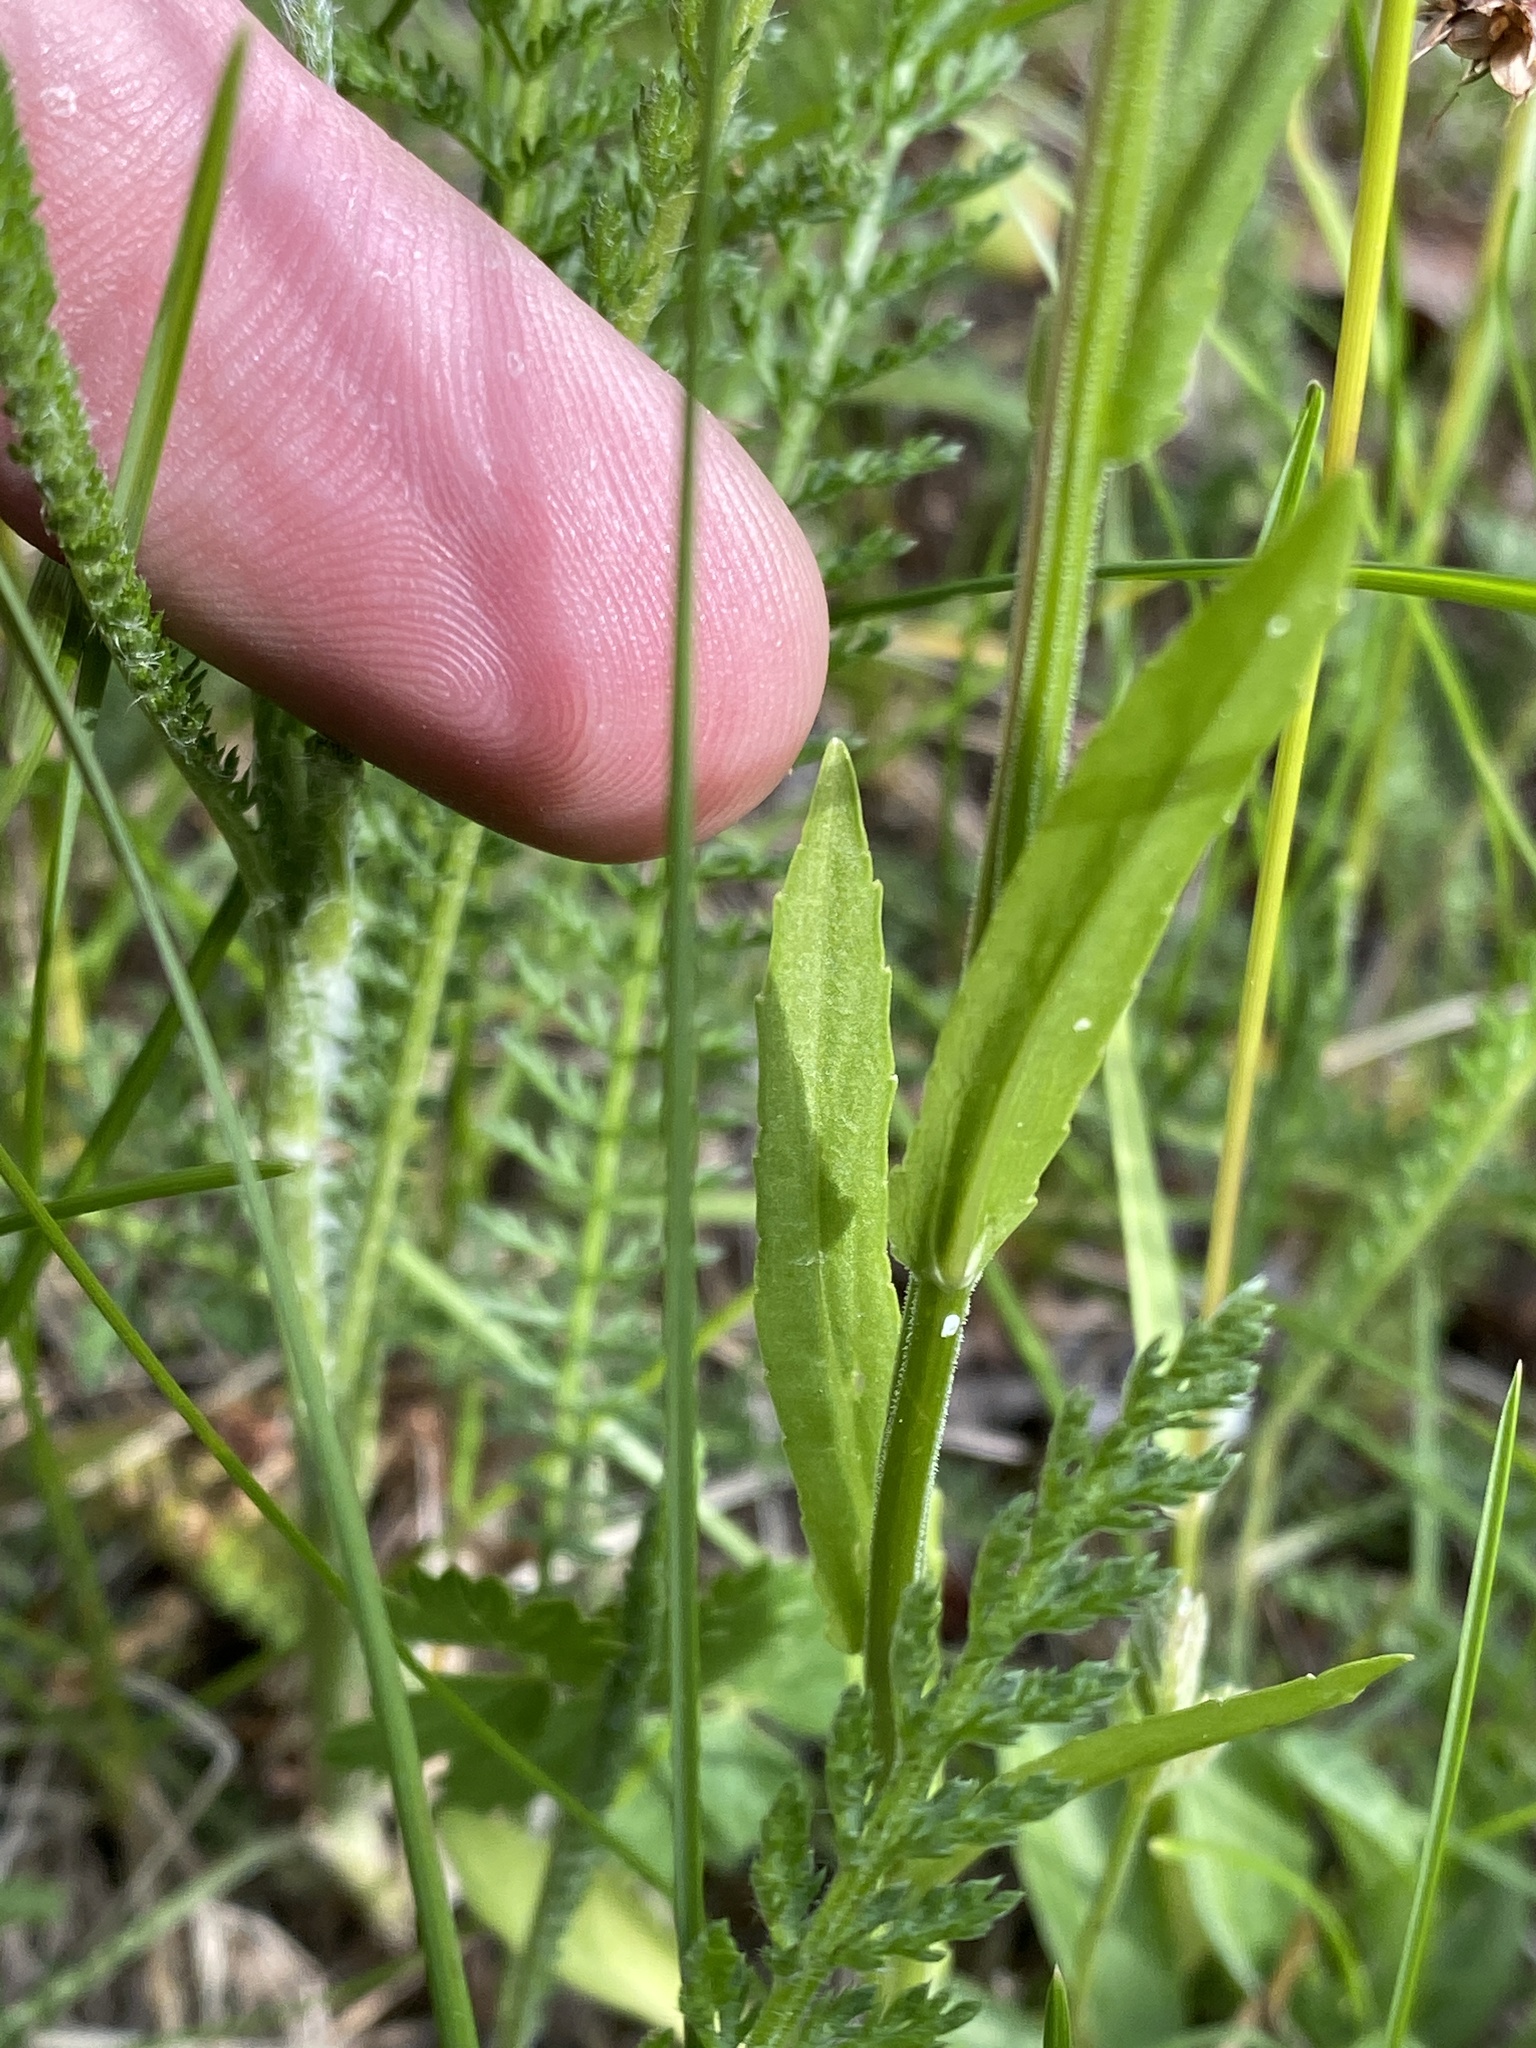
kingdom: Plantae
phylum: Tracheophyta
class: Magnoliopsida
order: Asterales
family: Campanulaceae
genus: Campanula
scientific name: Campanula patula
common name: Spreading bellflower
